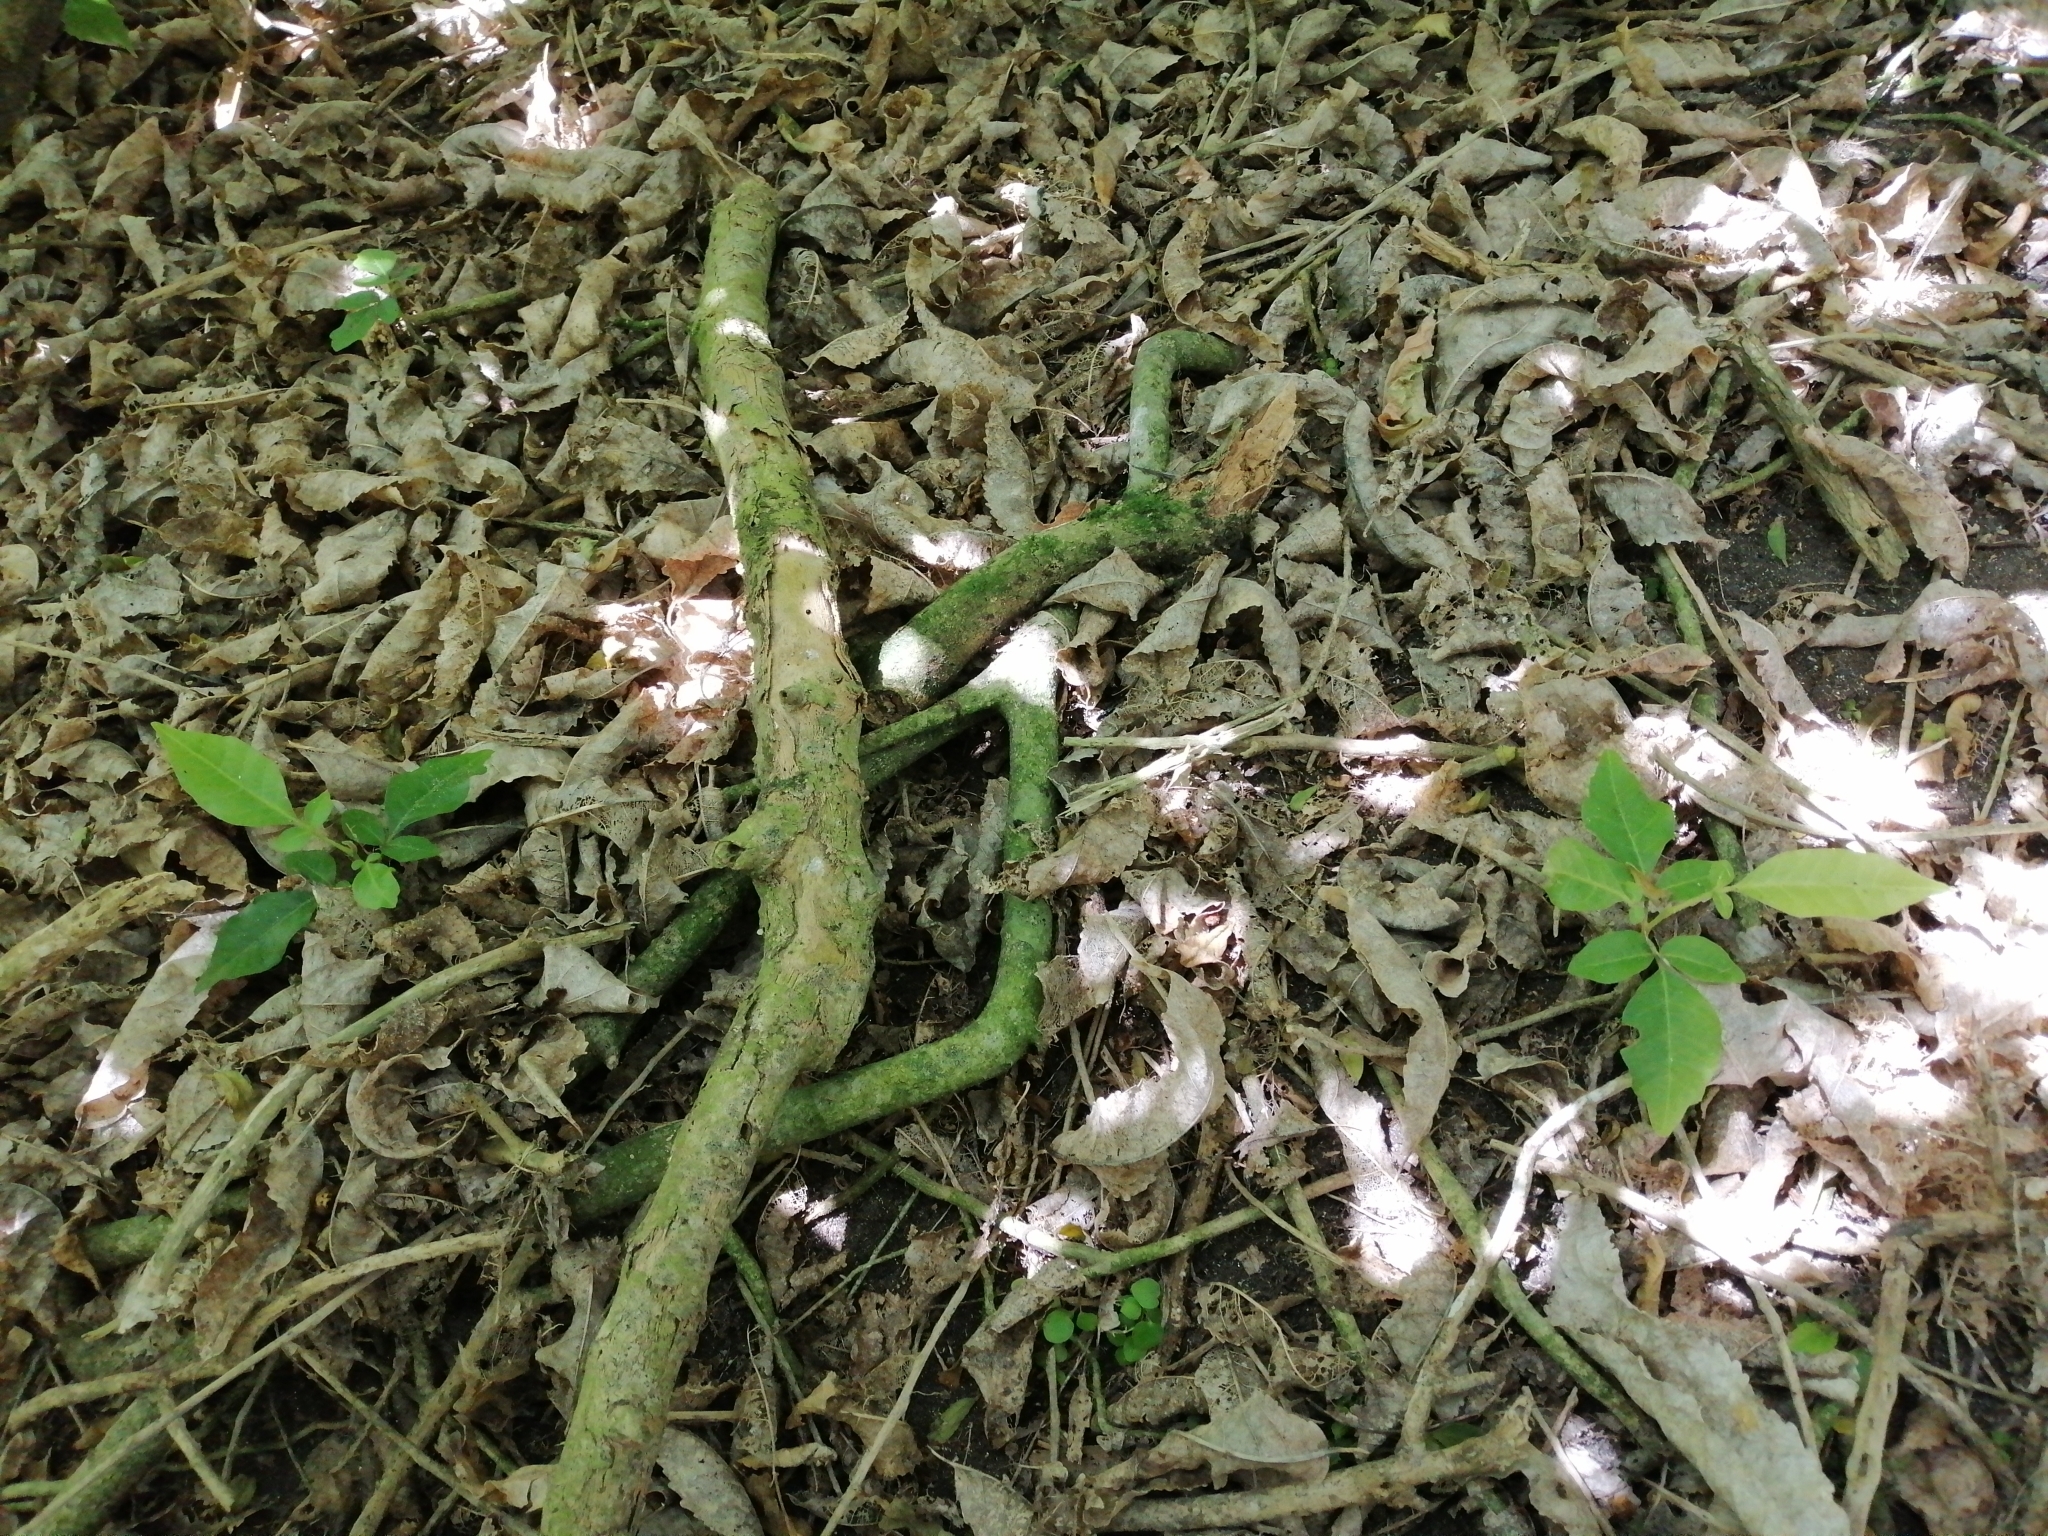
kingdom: Plantae
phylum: Tracheophyta
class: Magnoliopsida
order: Sapindales
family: Meliaceae
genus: Didymocheton
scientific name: Didymocheton spectabilis
